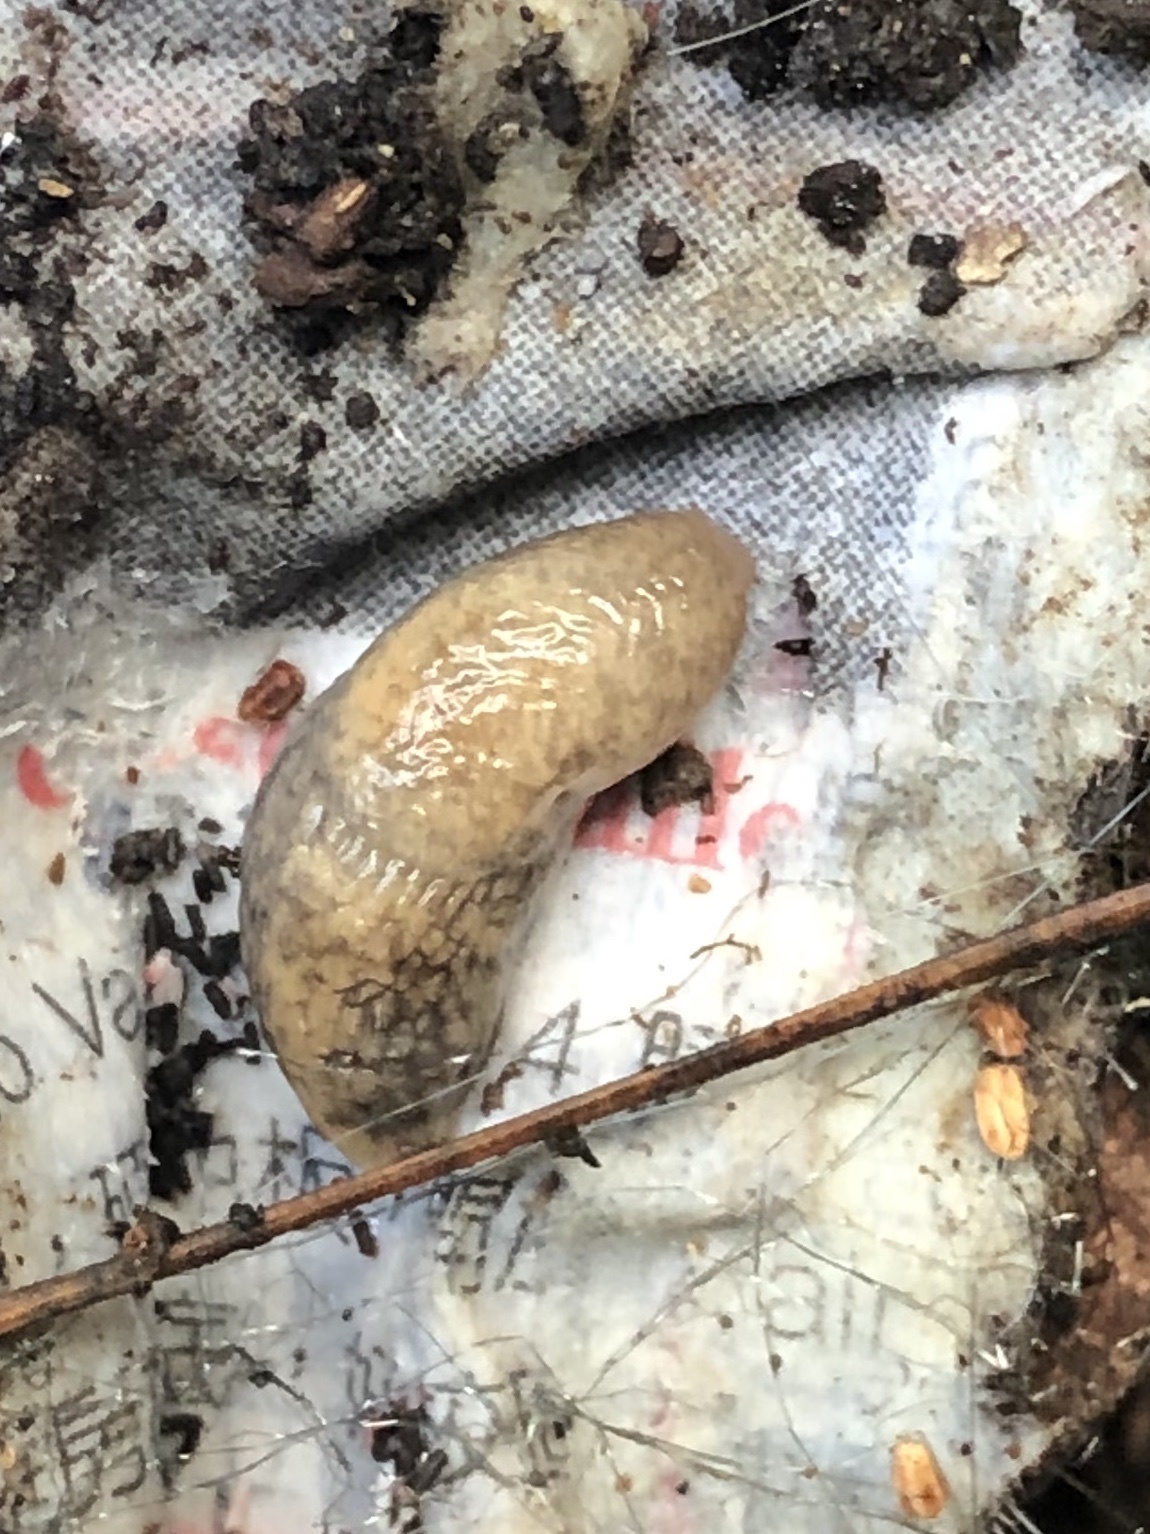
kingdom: Animalia
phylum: Mollusca
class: Gastropoda
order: Stylommatophora
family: Agriolimacidae
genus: Deroceras
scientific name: Deroceras reticulatum
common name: Gray field slug
